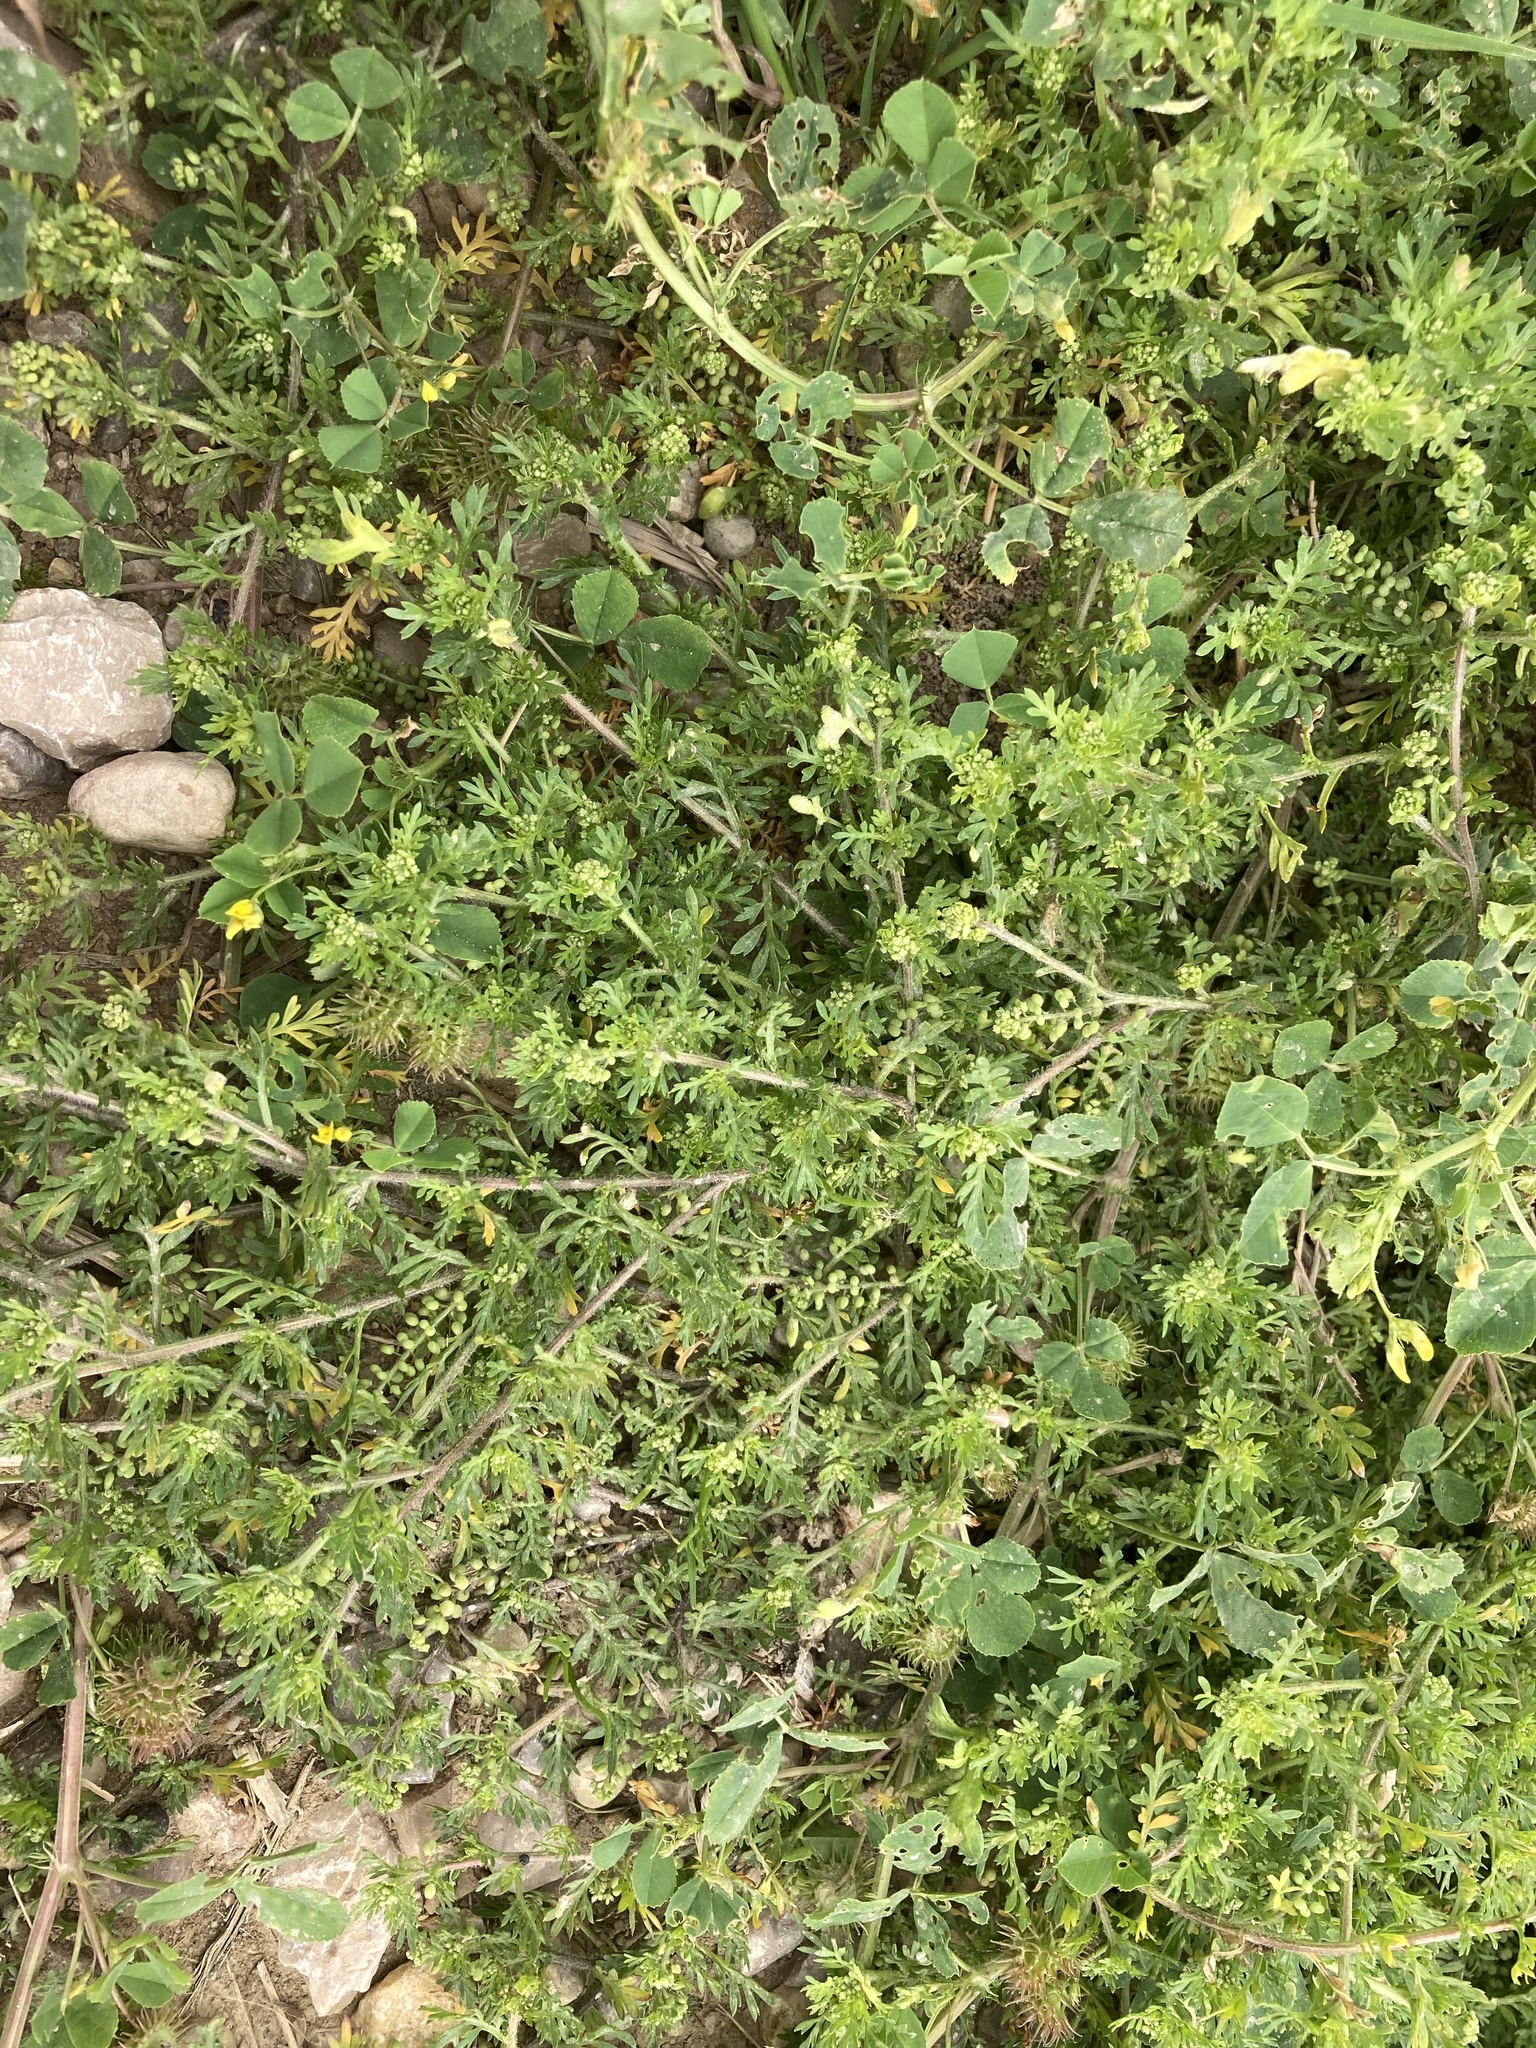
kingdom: Plantae
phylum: Tracheophyta
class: Magnoliopsida
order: Brassicales
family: Brassicaceae
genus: Lepidium
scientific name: Lepidium didymum
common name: Lesser swinecress
